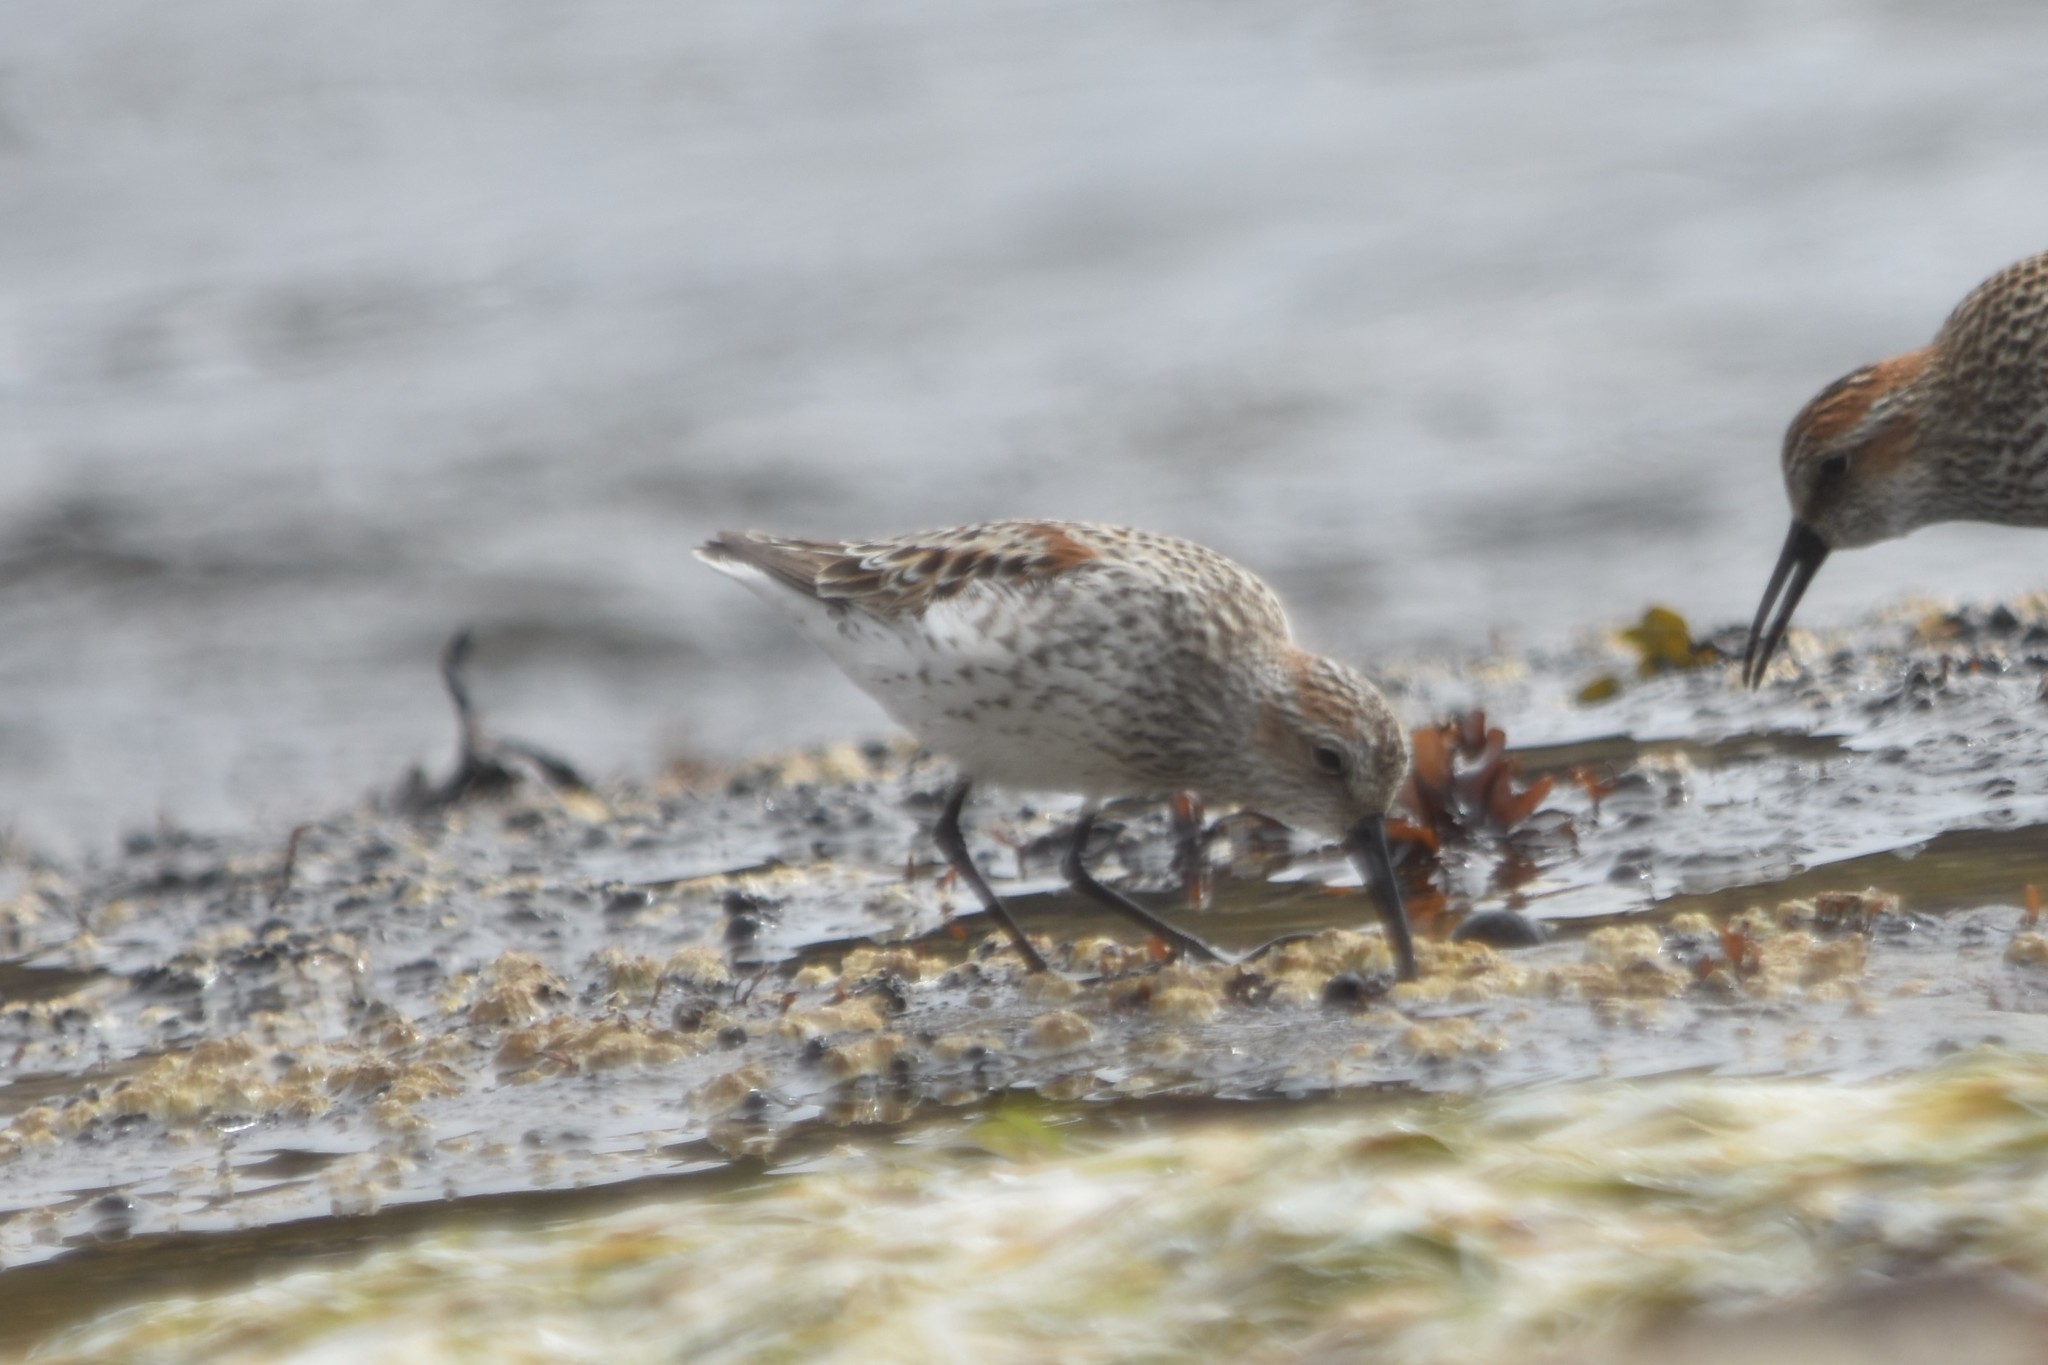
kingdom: Animalia
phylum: Chordata
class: Aves
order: Charadriiformes
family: Scolopacidae
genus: Calidris
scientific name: Calidris mauri
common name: Western sandpiper
